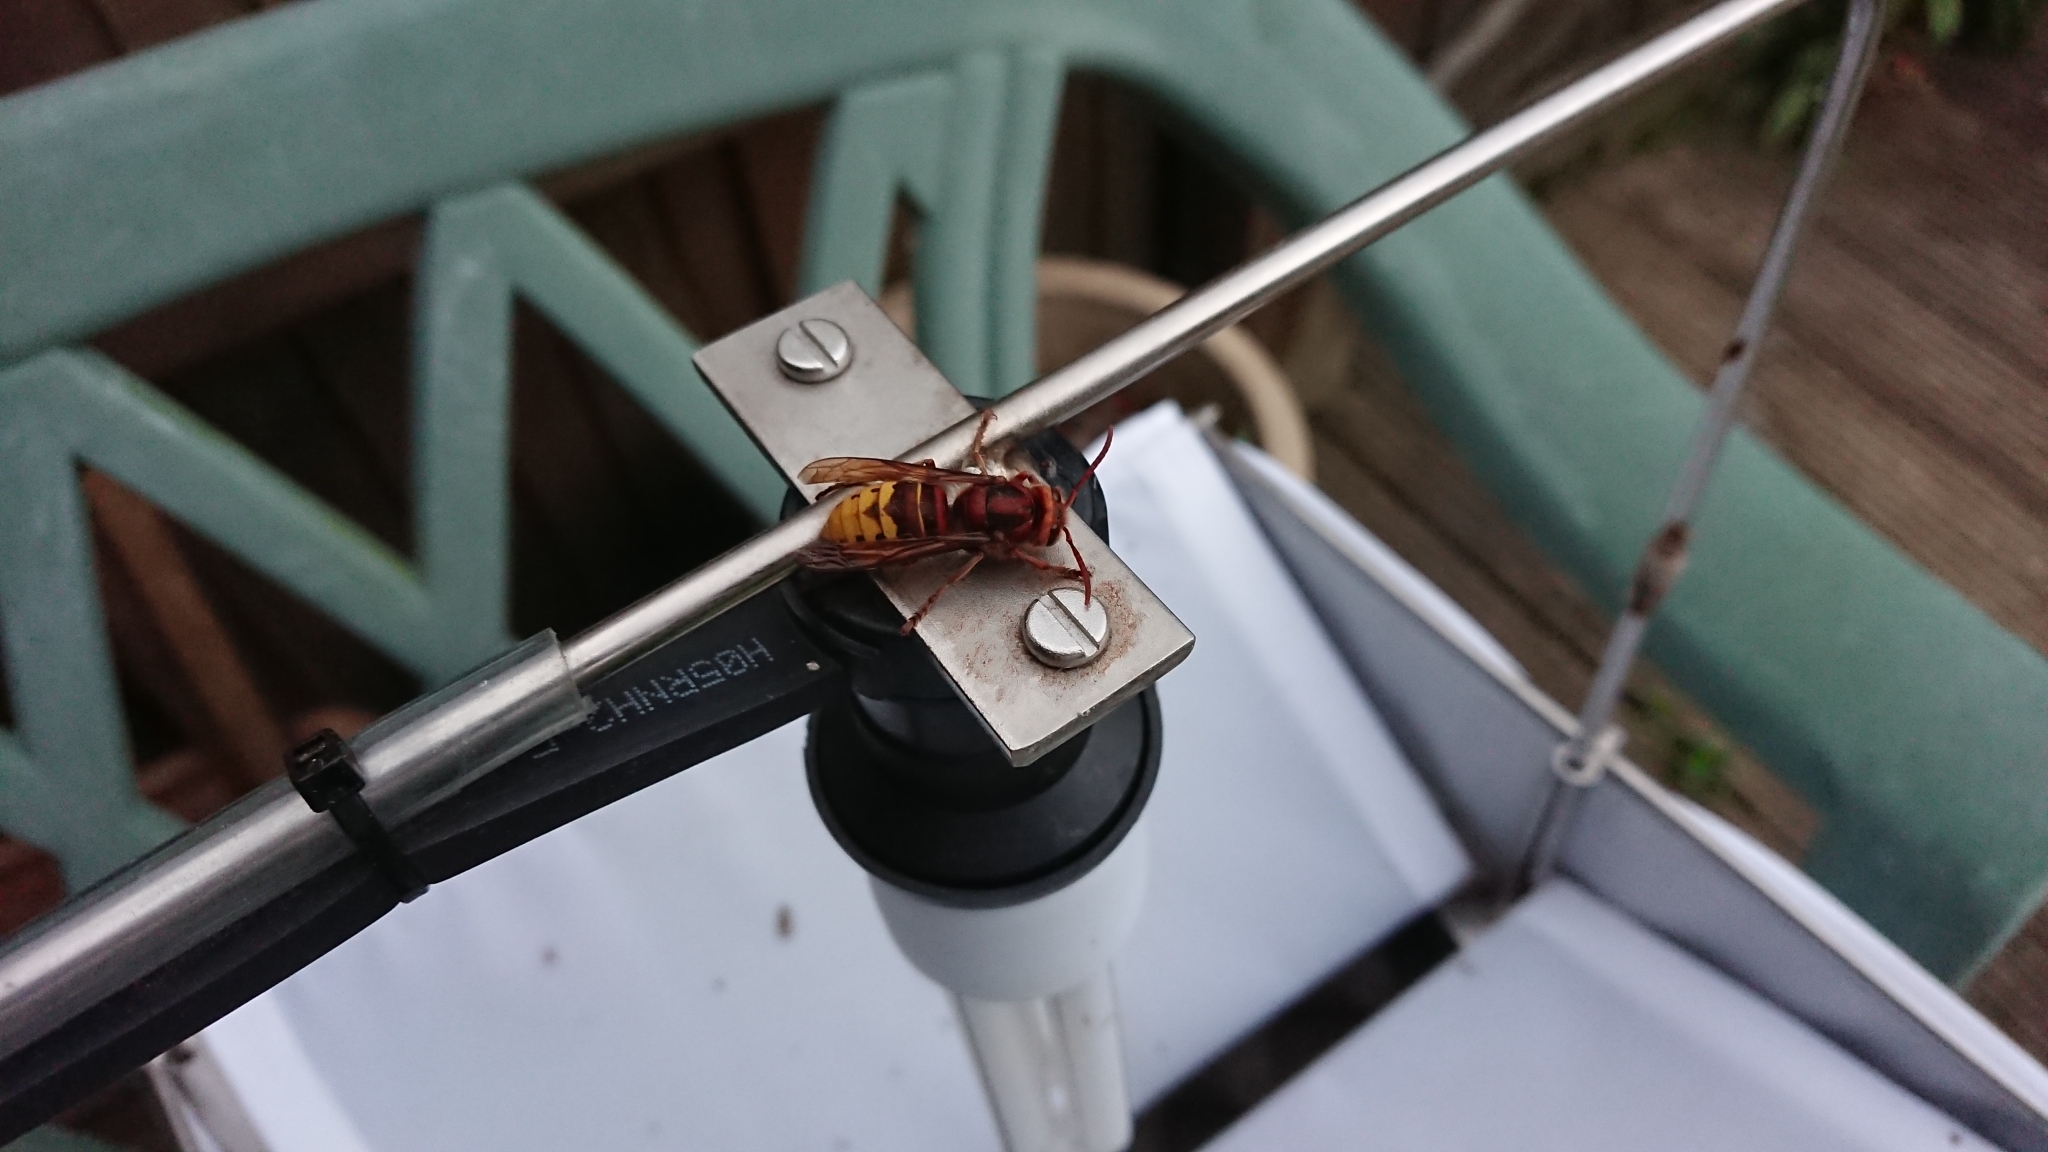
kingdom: Animalia
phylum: Arthropoda
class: Insecta
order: Hymenoptera
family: Vespidae
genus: Vespa
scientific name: Vespa crabro
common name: Hornet
